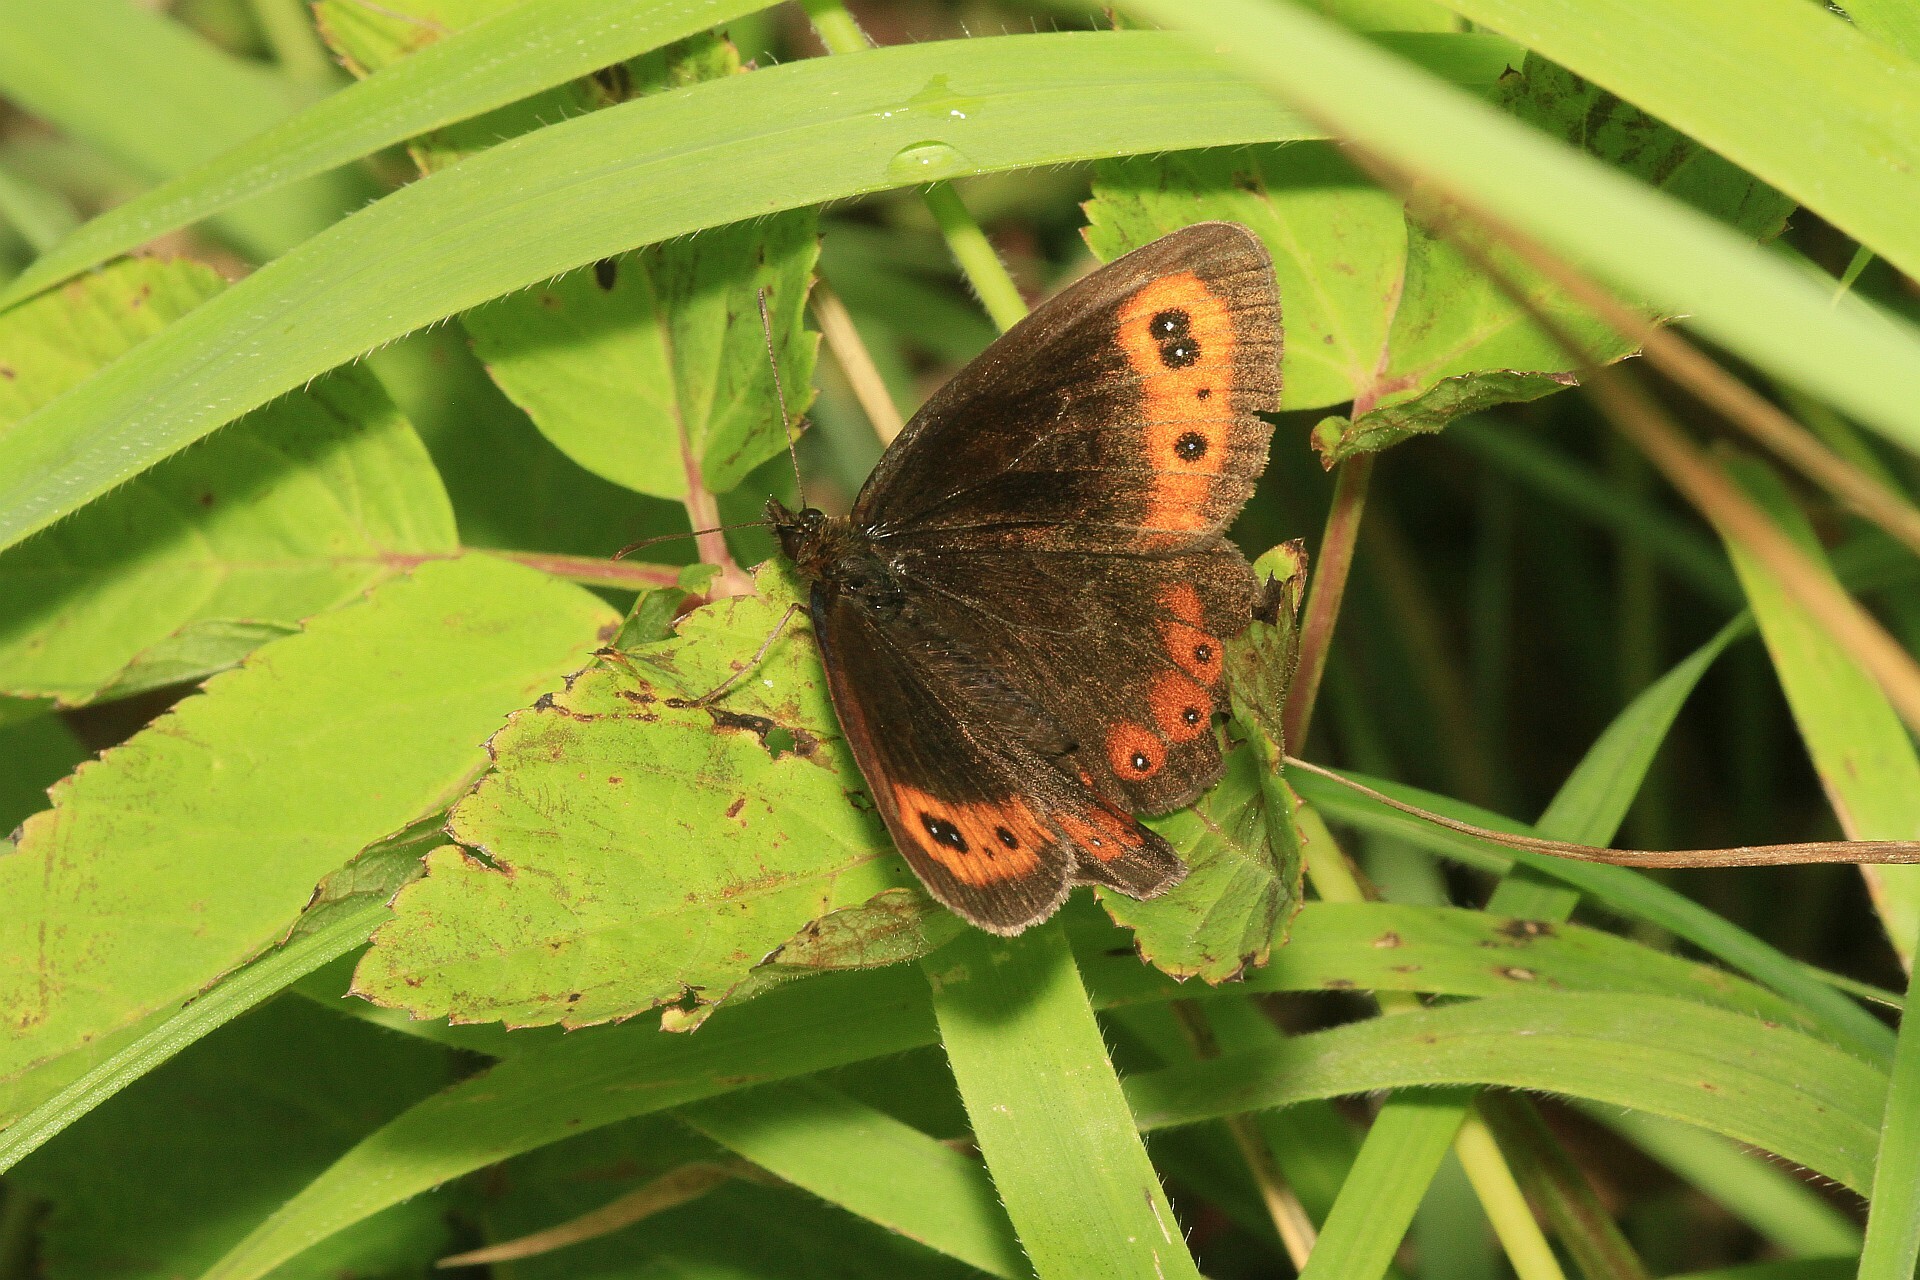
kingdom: Animalia
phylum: Arthropoda
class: Insecta
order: Lepidoptera
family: Nymphalidae
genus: Erebia
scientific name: Erebia aethiops
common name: Scotch argus
